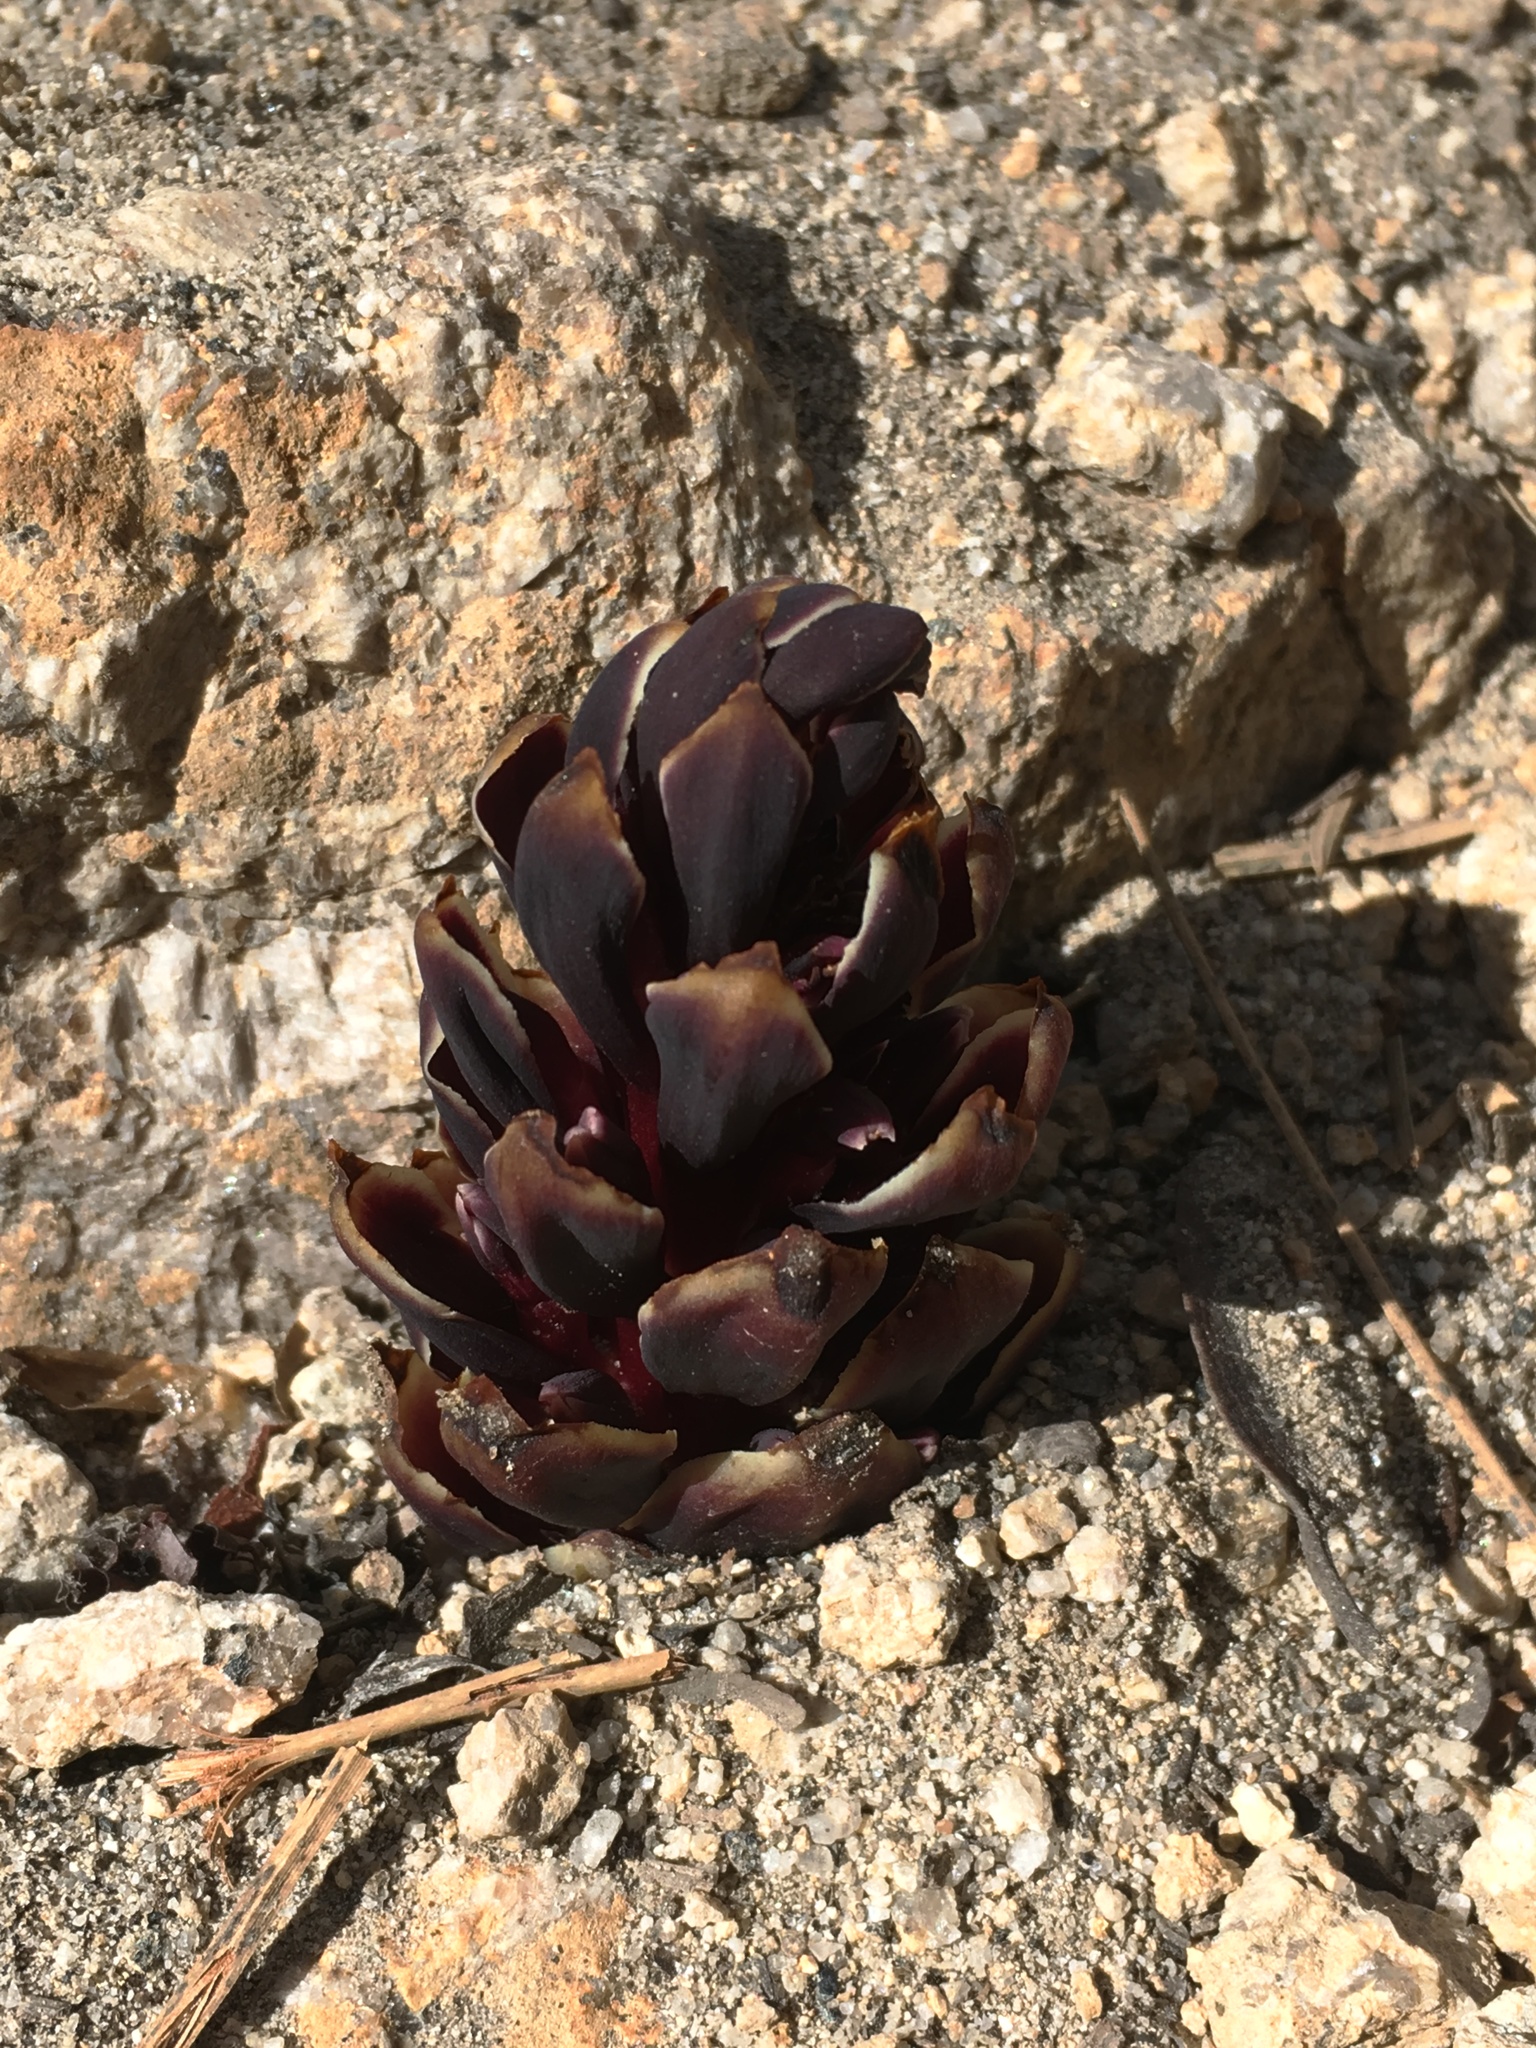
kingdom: Plantae
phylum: Tracheophyta
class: Magnoliopsida
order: Lamiales
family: Orobanchaceae
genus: Kopsiopsis
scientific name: Kopsiopsis strobilacea
